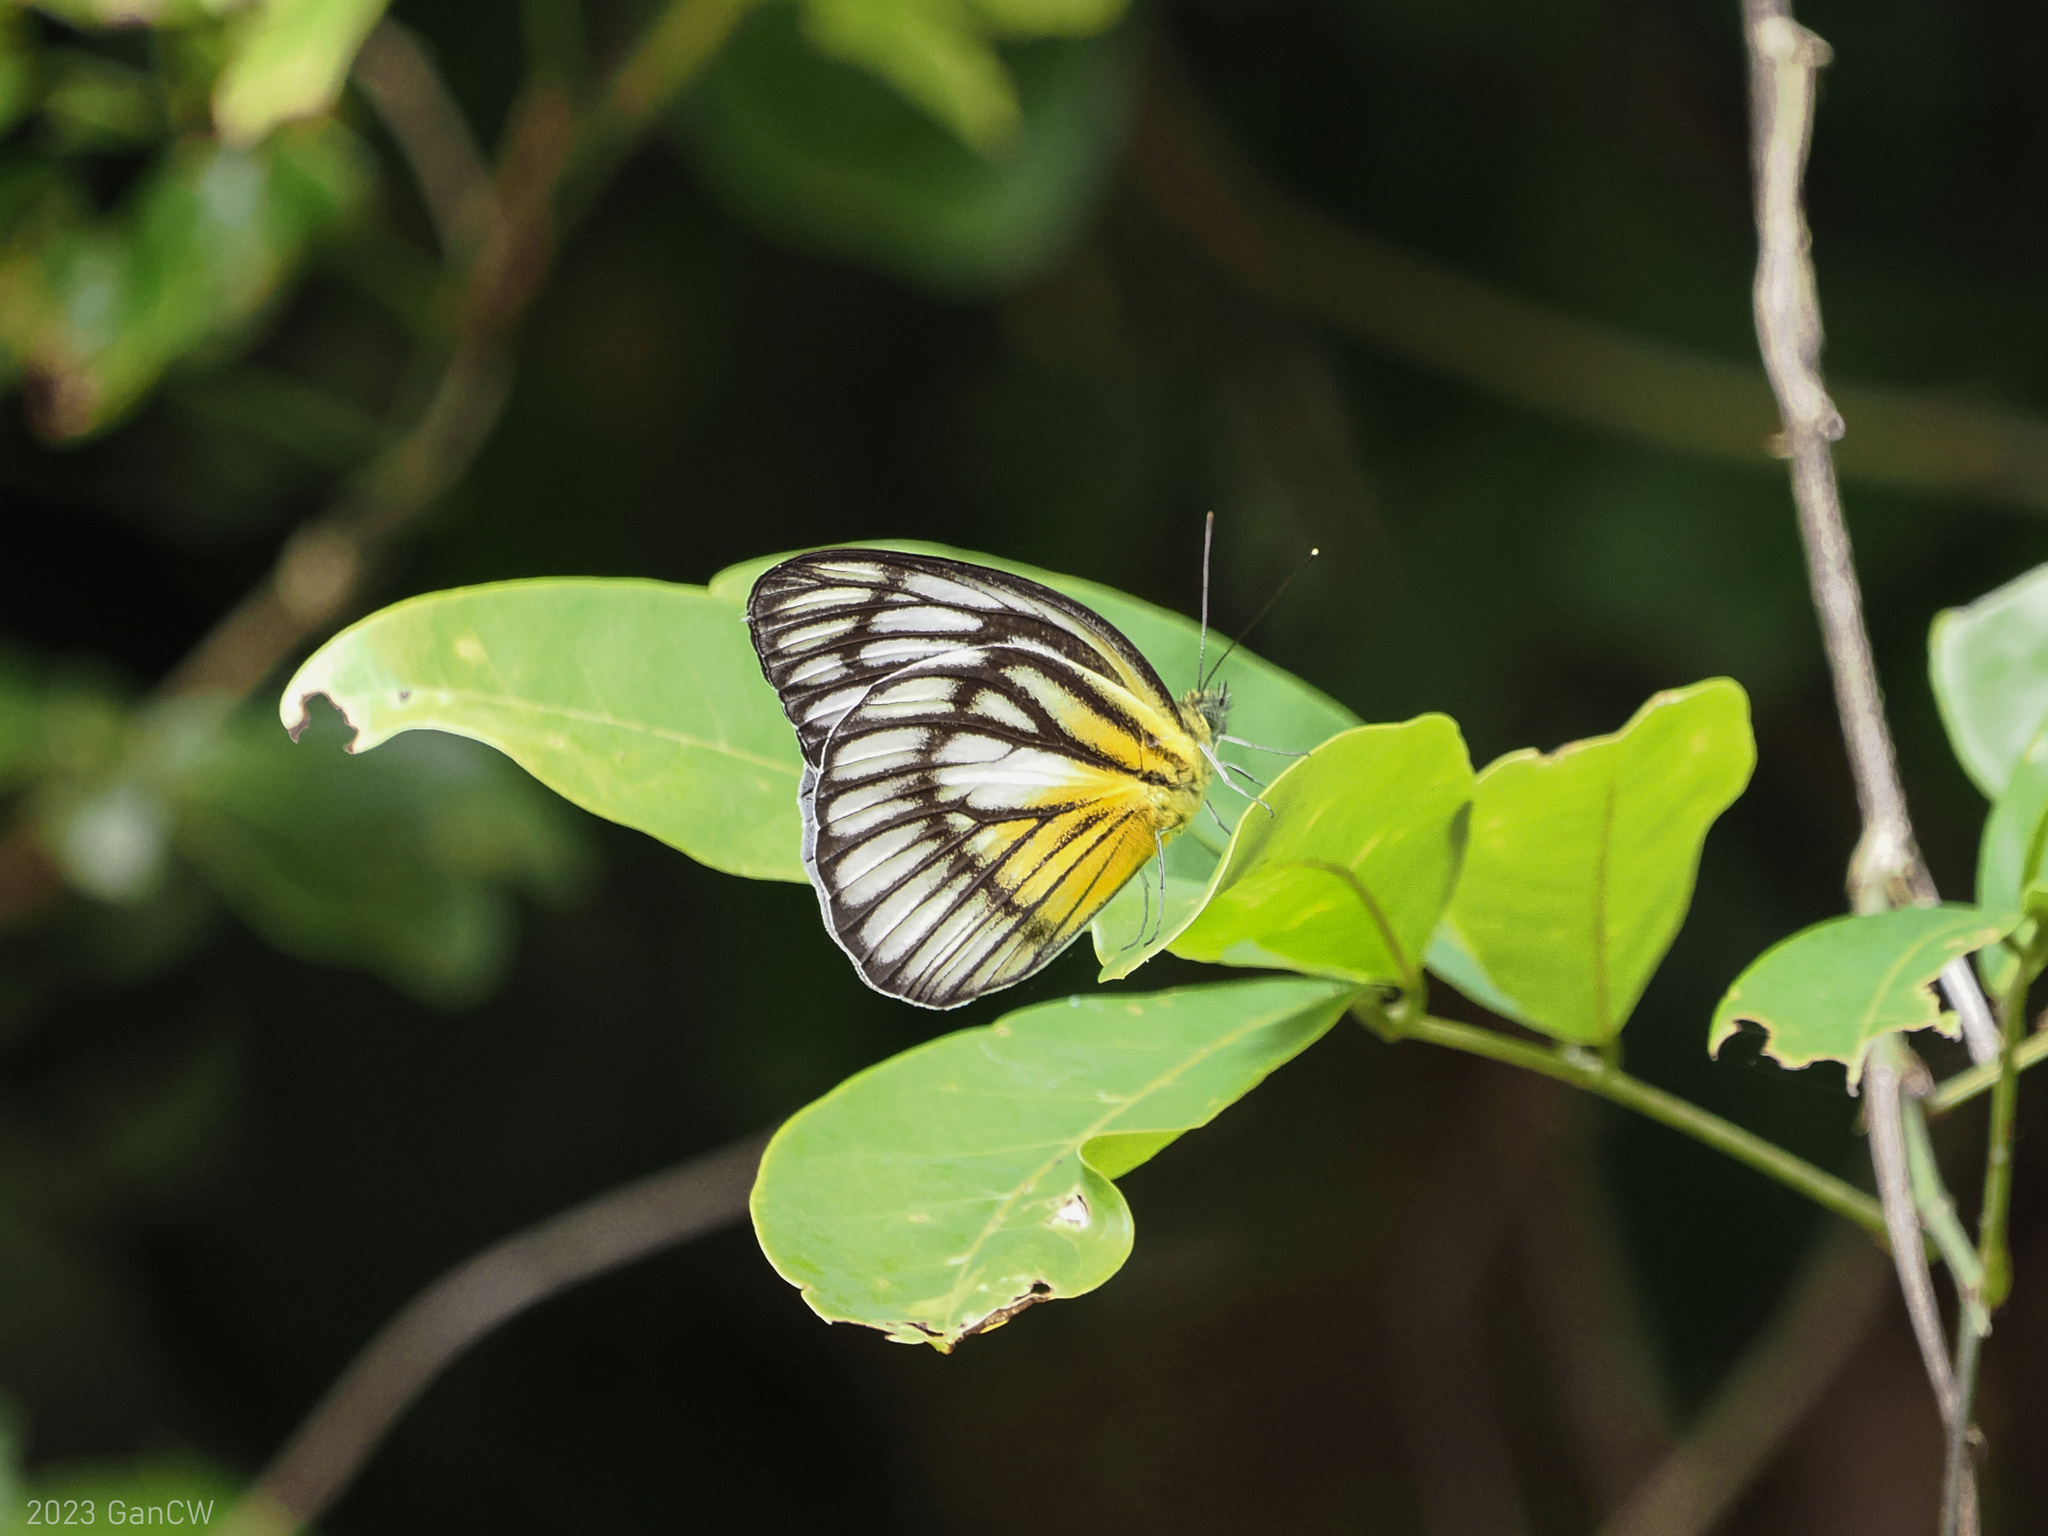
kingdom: Animalia
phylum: Arthropoda
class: Insecta
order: Lepidoptera
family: Pieridae
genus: Cepora
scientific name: Cepora celebensis
